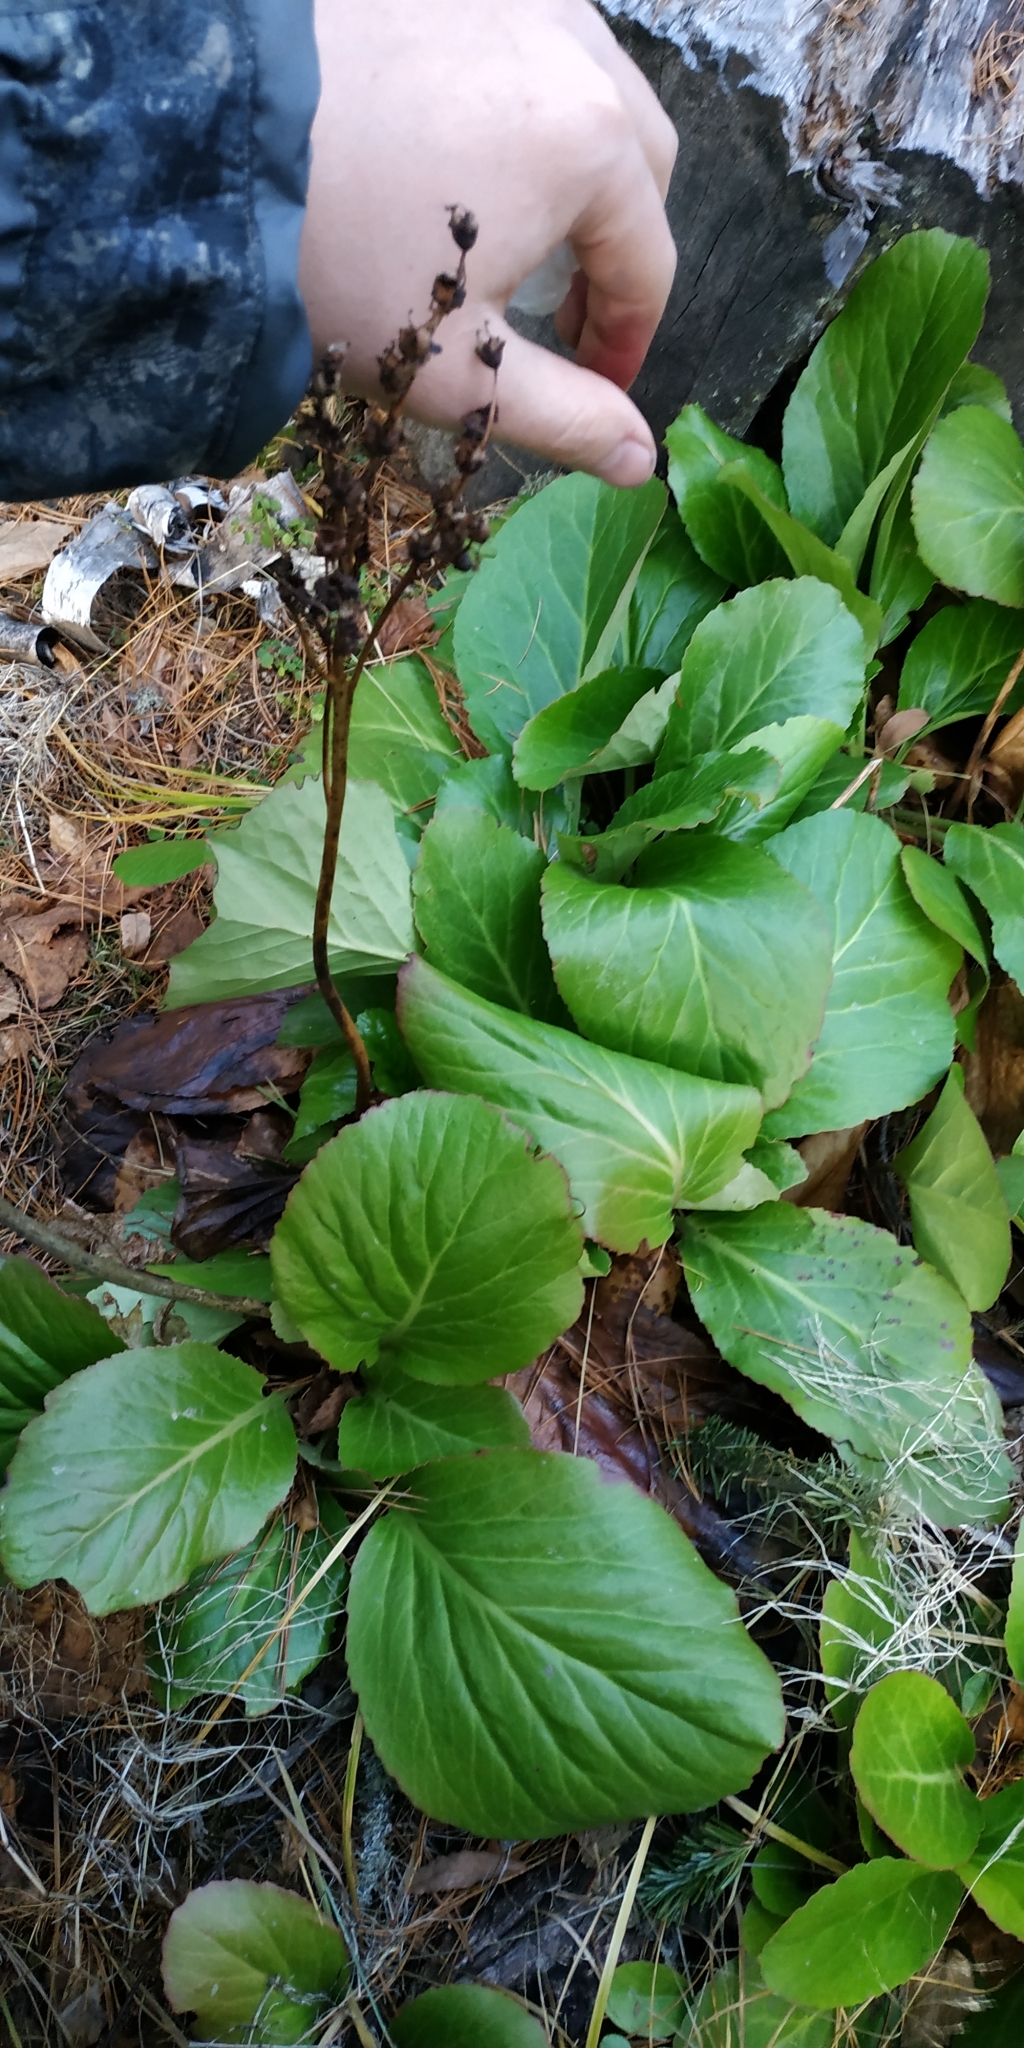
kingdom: Plantae
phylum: Tracheophyta
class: Magnoliopsida
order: Saxifragales
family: Saxifragaceae
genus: Bergenia
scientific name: Bergenia crassifolia
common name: Elephant-ears
